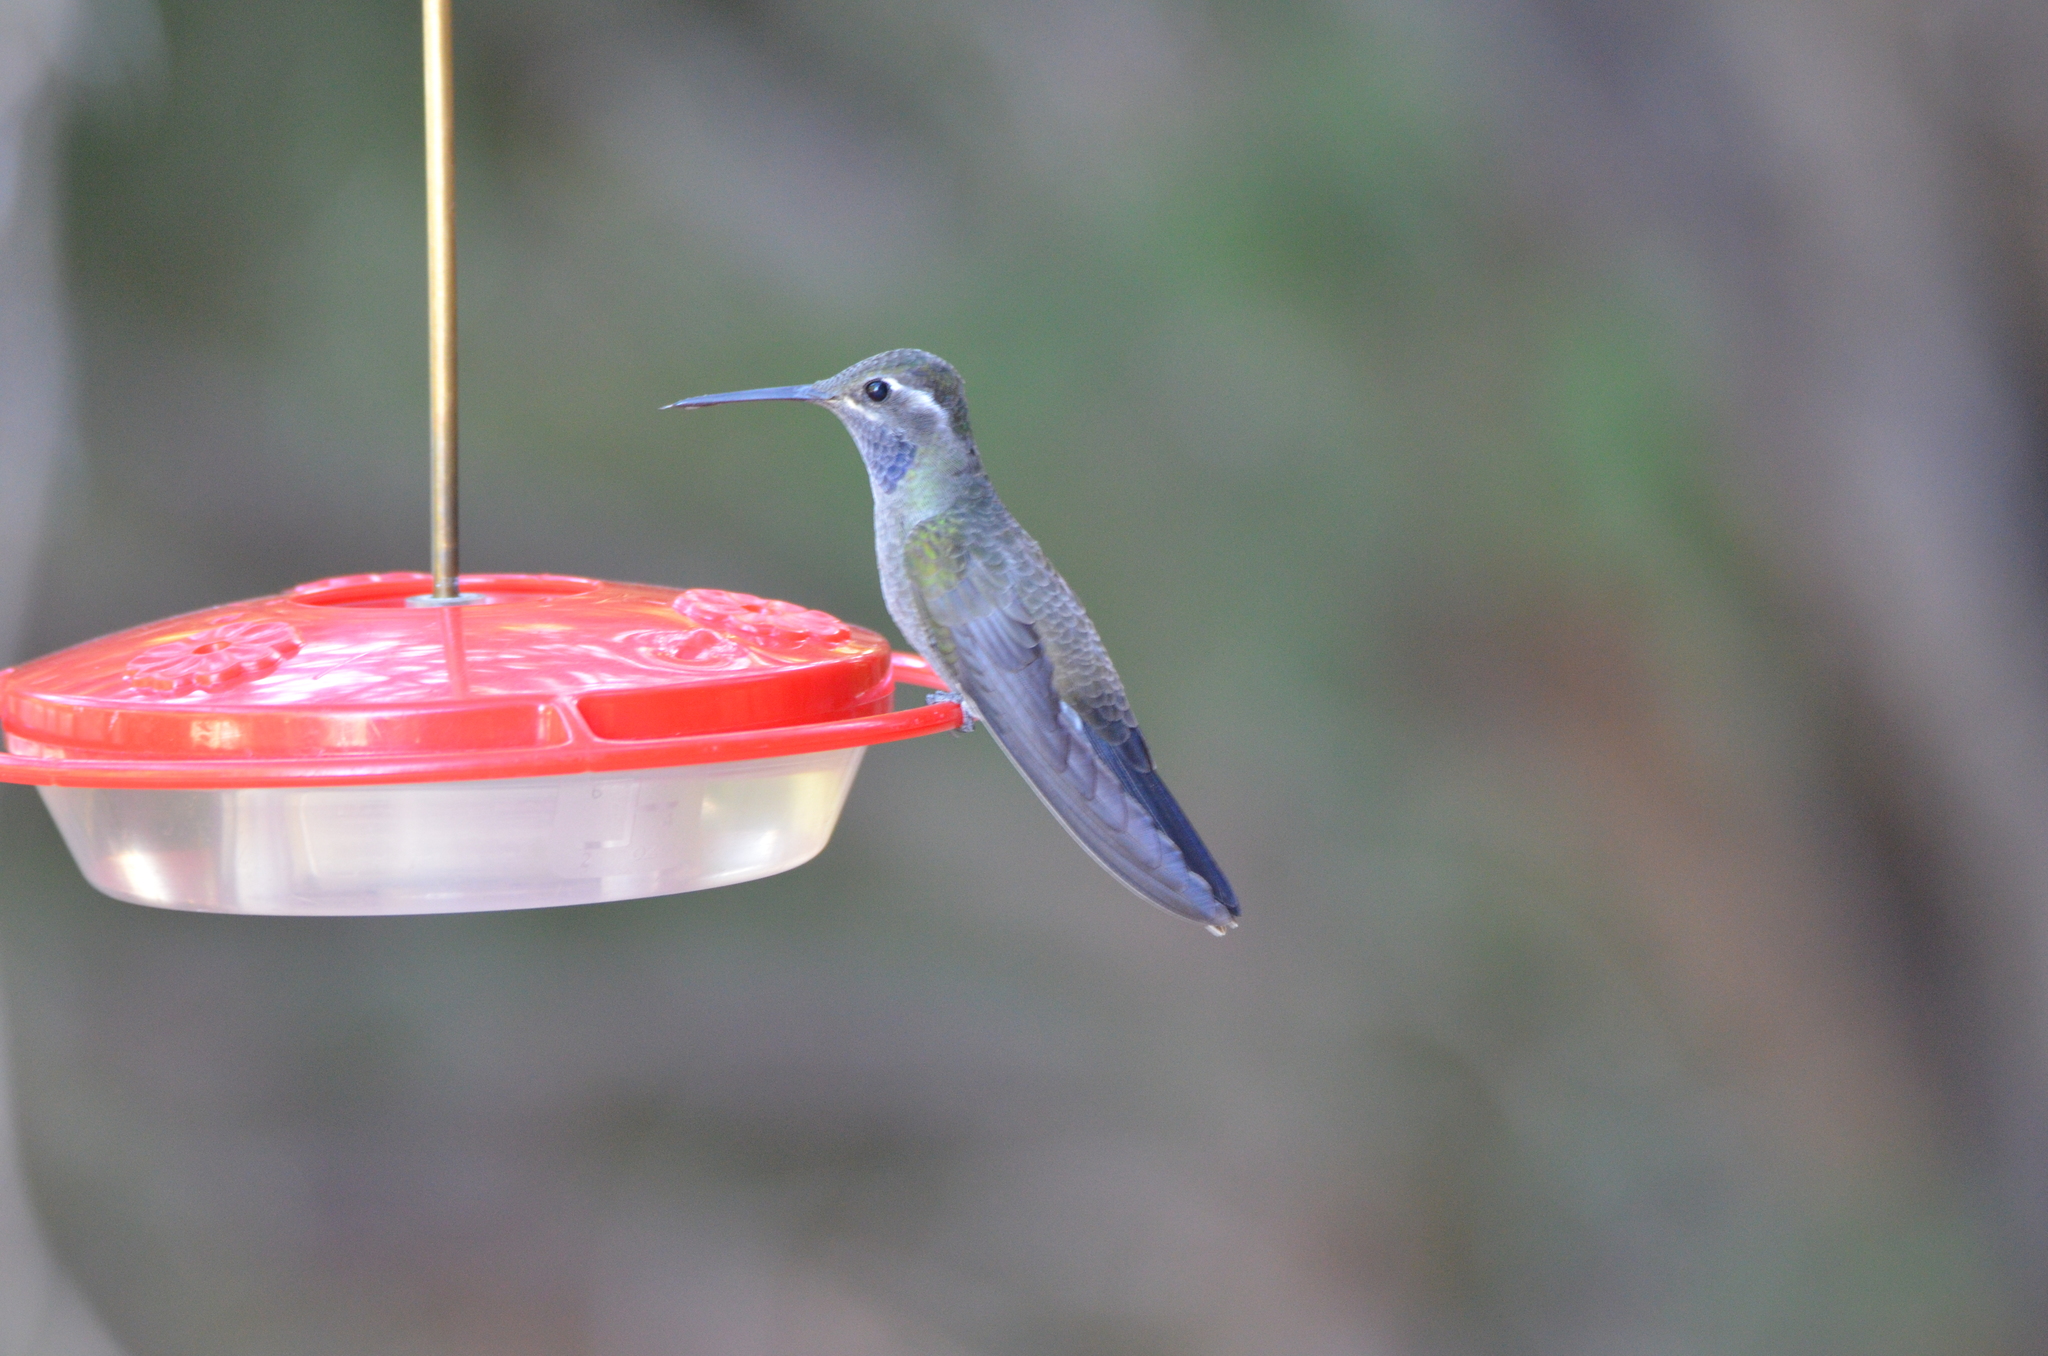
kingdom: Animalia
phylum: Chordata
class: Aves
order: Apodiformes
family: Trochilidae
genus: Lampornis
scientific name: Lampornis clemenciae
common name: Blue-throated mountaingem
